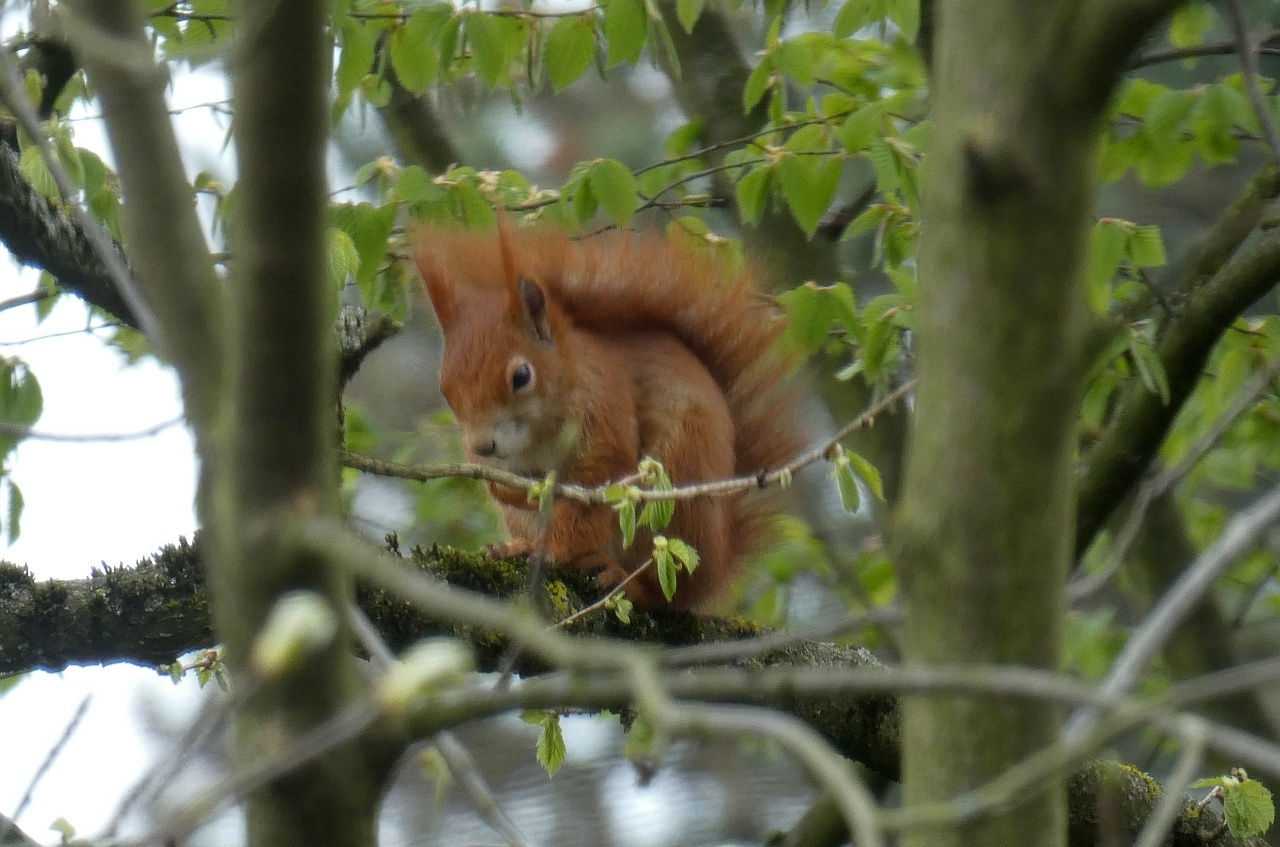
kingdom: Animalia
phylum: Chordata
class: Mammalia
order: Rodentia
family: Sciuridae
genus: Sciurus
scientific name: Sciurus vulgaris
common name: Eurasian red squirrel
